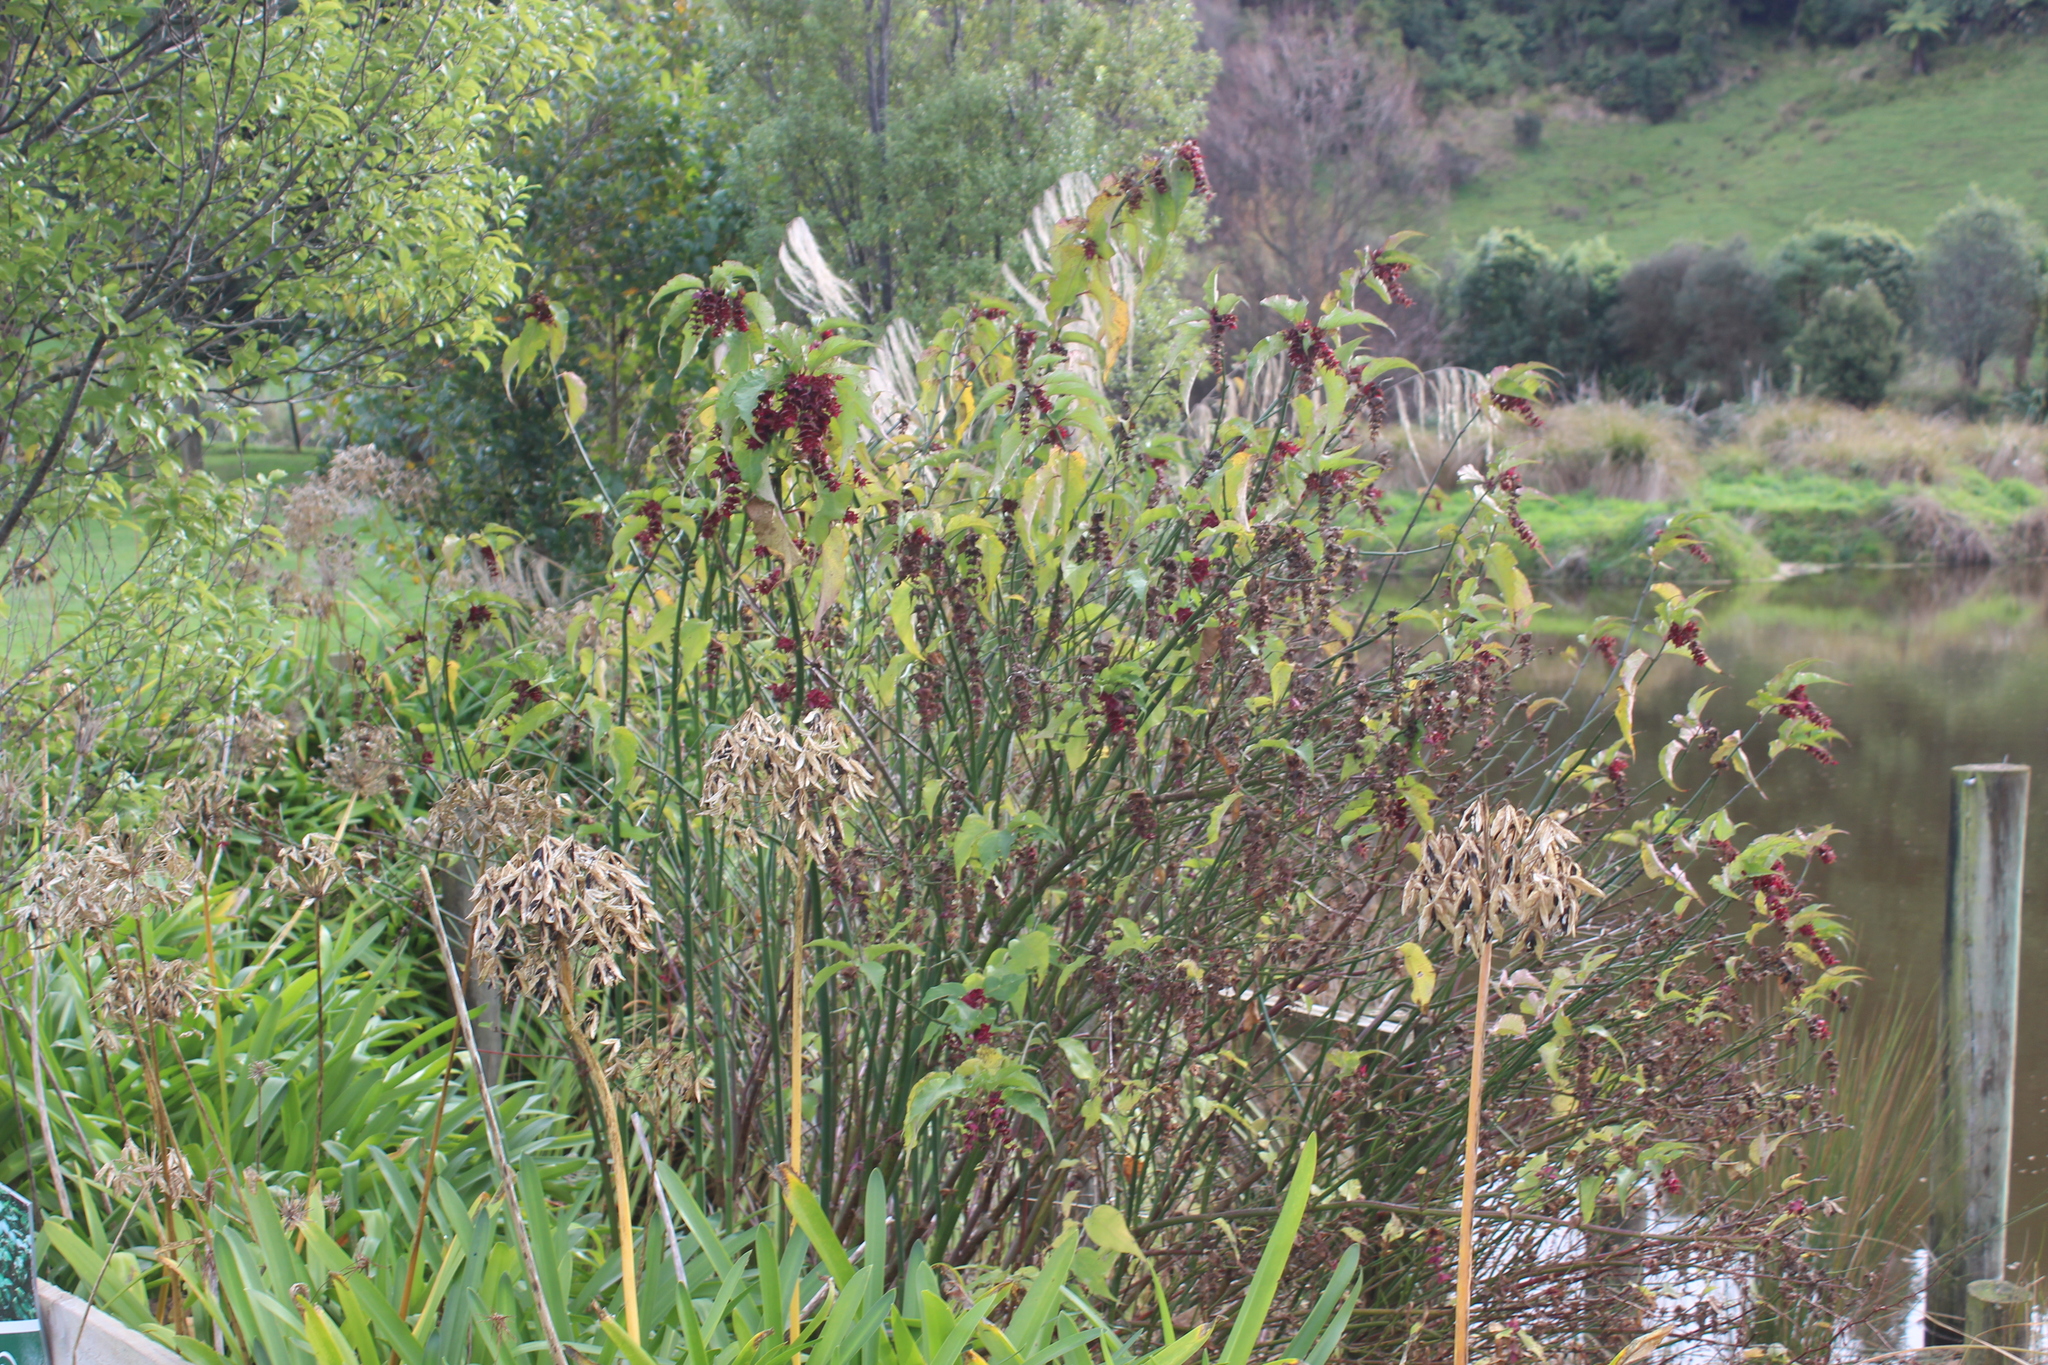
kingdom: Plantae
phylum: Tracheophyta
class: Magnoliopsida
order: Dipsacales
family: Caprifoliaceae
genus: Leycesteria
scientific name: Leycesteria formosa
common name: Himalayan honeysuckle
